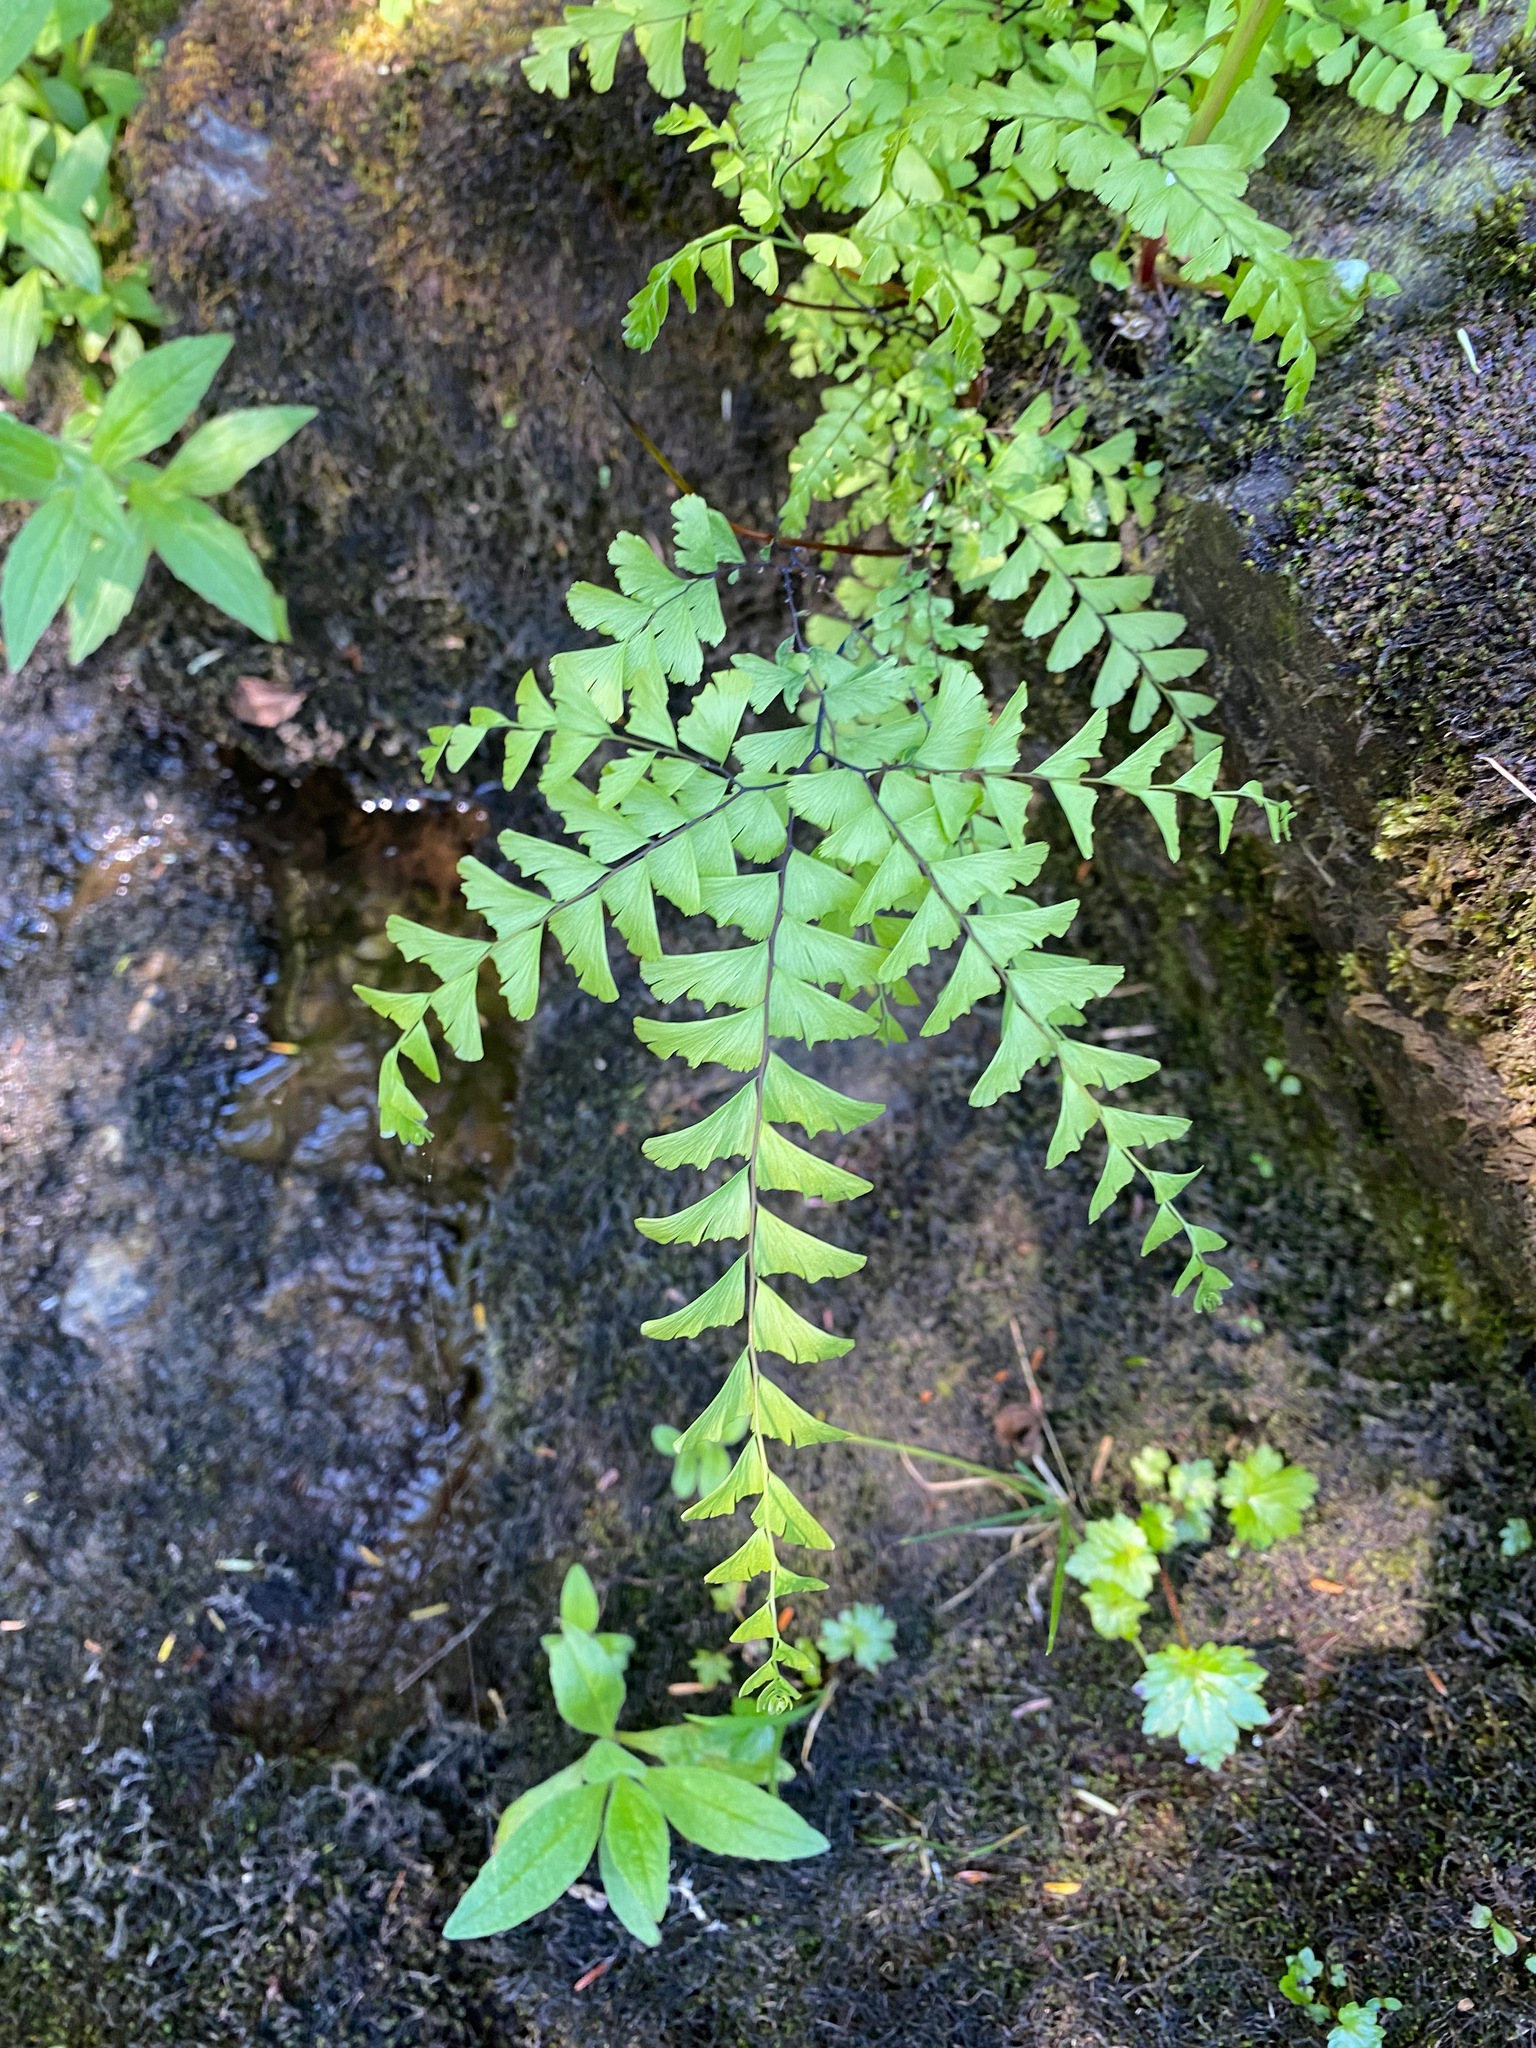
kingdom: Plantae
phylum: Tracheophyta
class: Polypodiopsida
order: Polypodiales
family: Pteridaceae
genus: Adiantum
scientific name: Adiantum aleuticum
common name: Aleutian maidenhair fern
